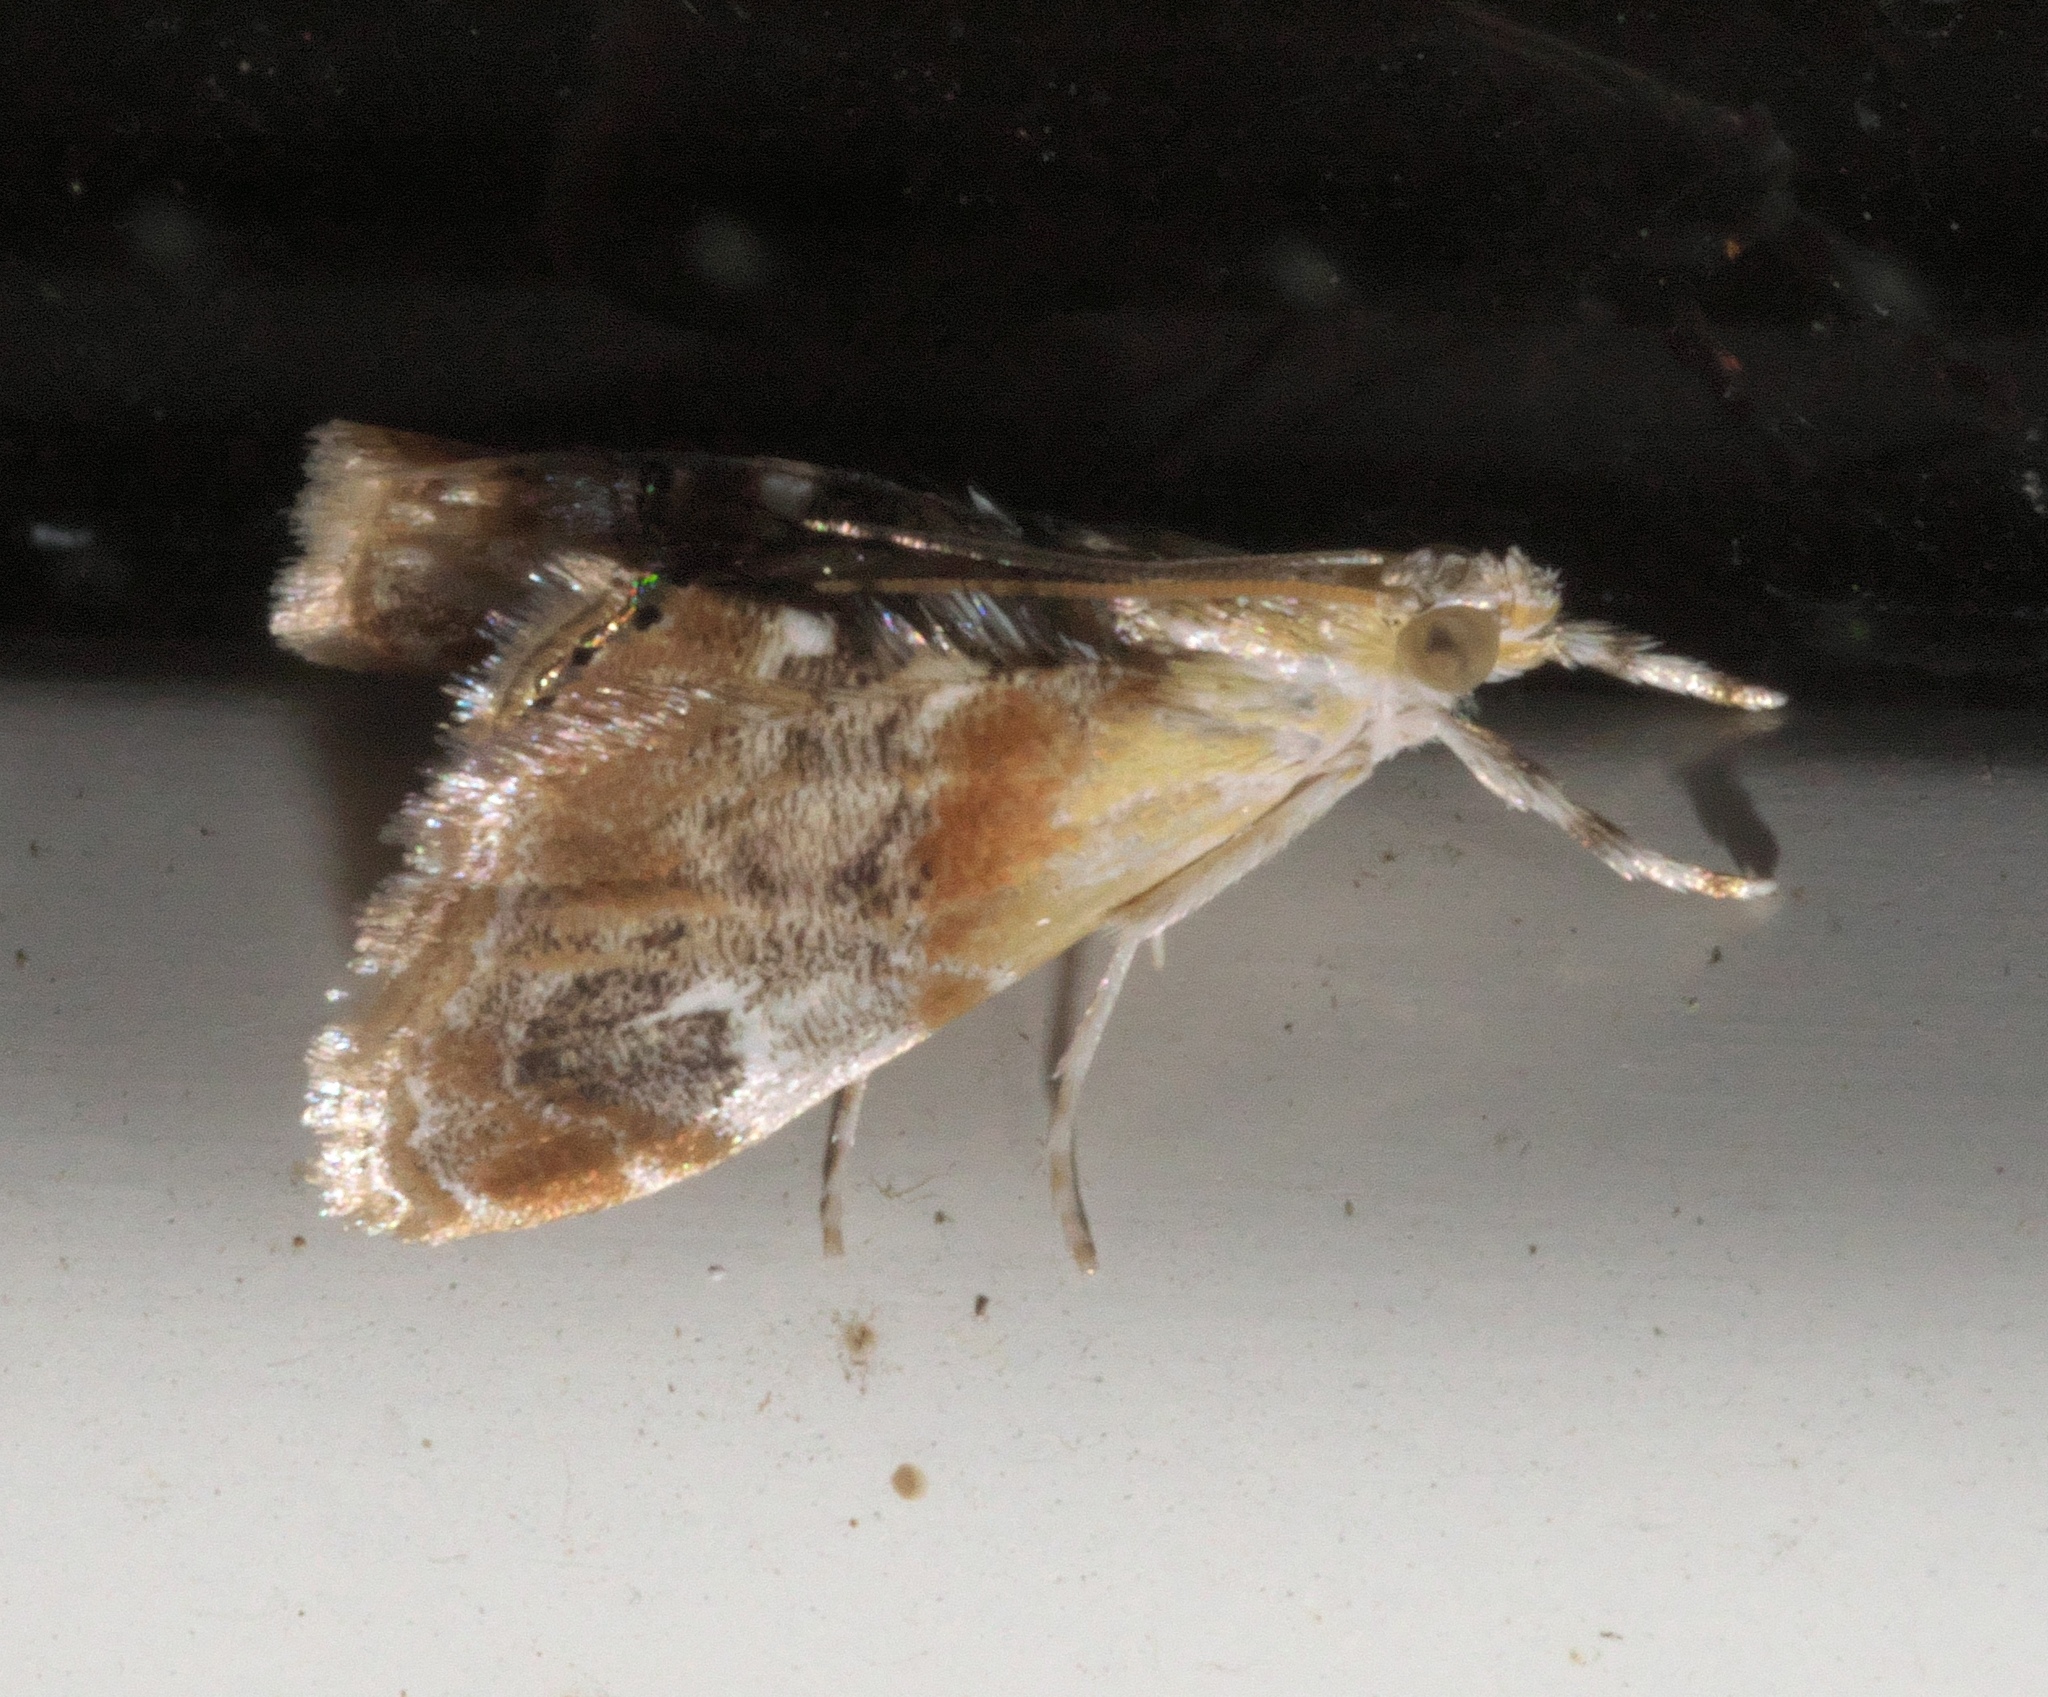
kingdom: Animalia
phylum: Arthropoda
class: Insecta
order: Lepidoptera
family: Crambidae
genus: Dicymolomia
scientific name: Dicymolomia julianalis
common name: Julia's dicymolomia moth
